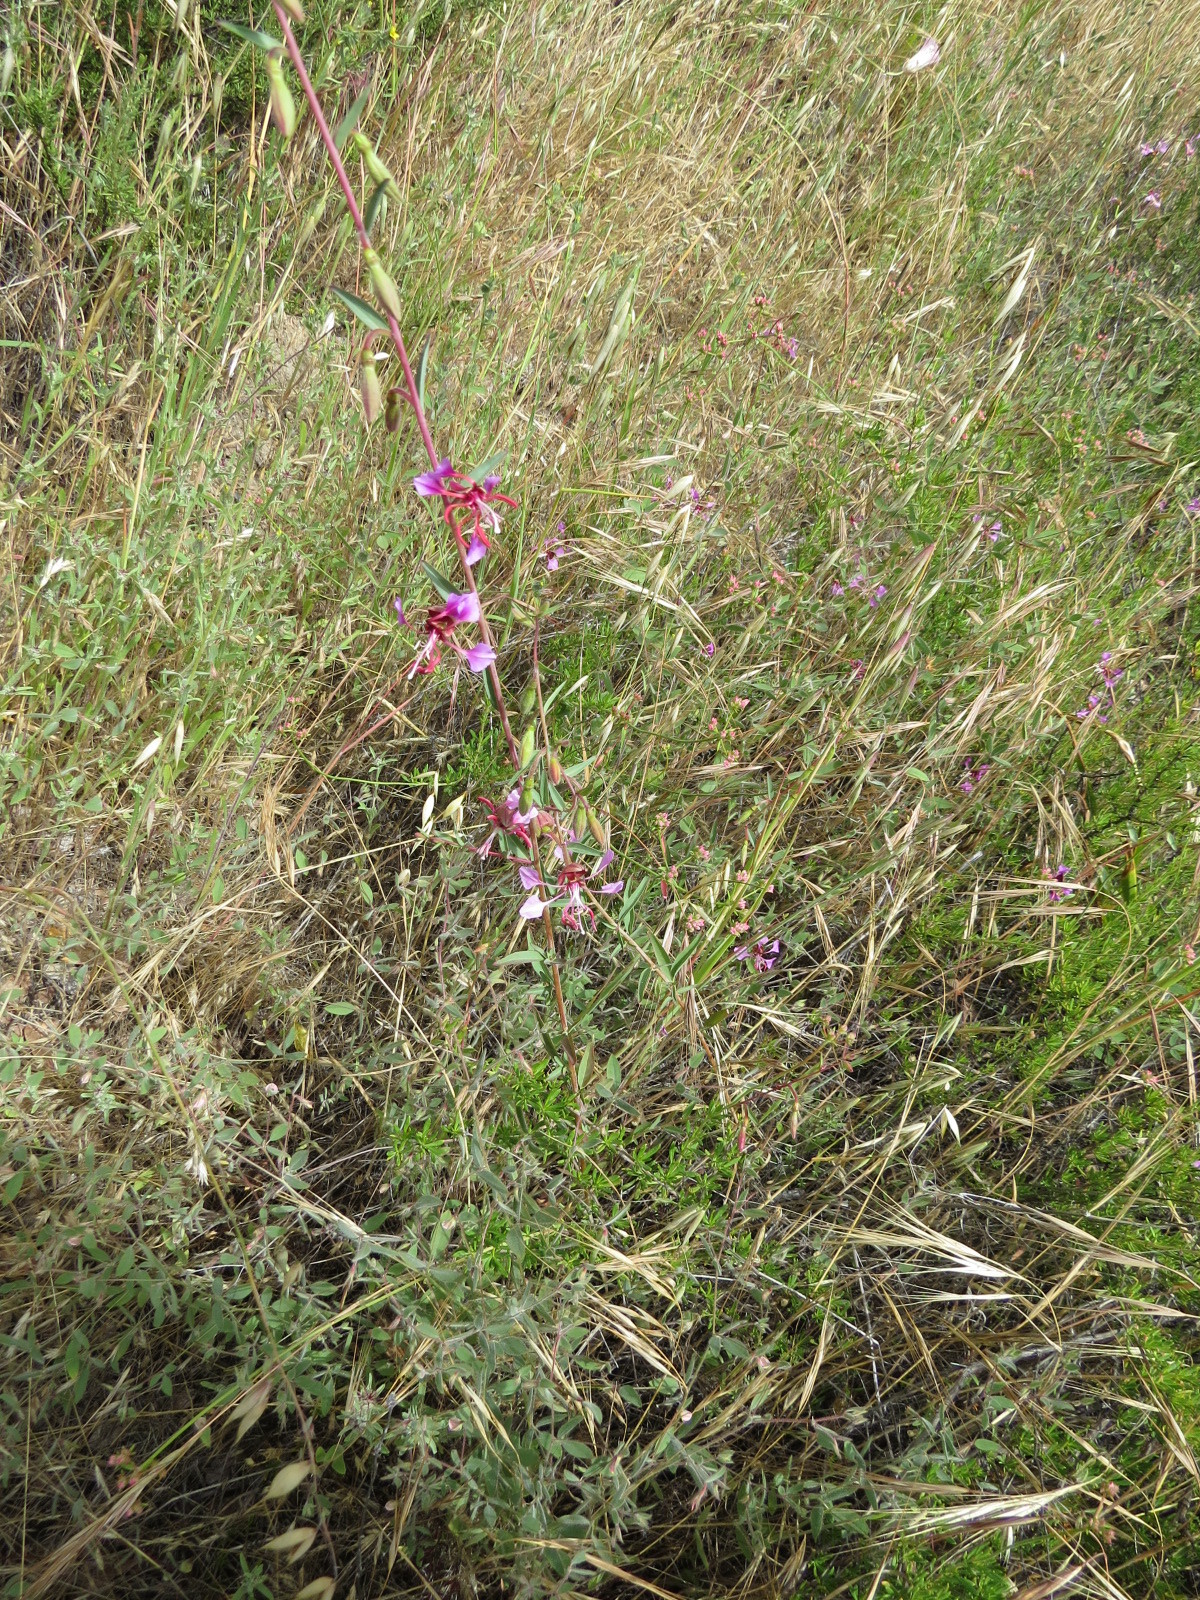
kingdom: Plantae
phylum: Tracheophyta
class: Magnoliopsida
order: Myrtales
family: Onagraceae
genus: Clarkia
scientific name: Clarkia unguiculata
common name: Clarkia
